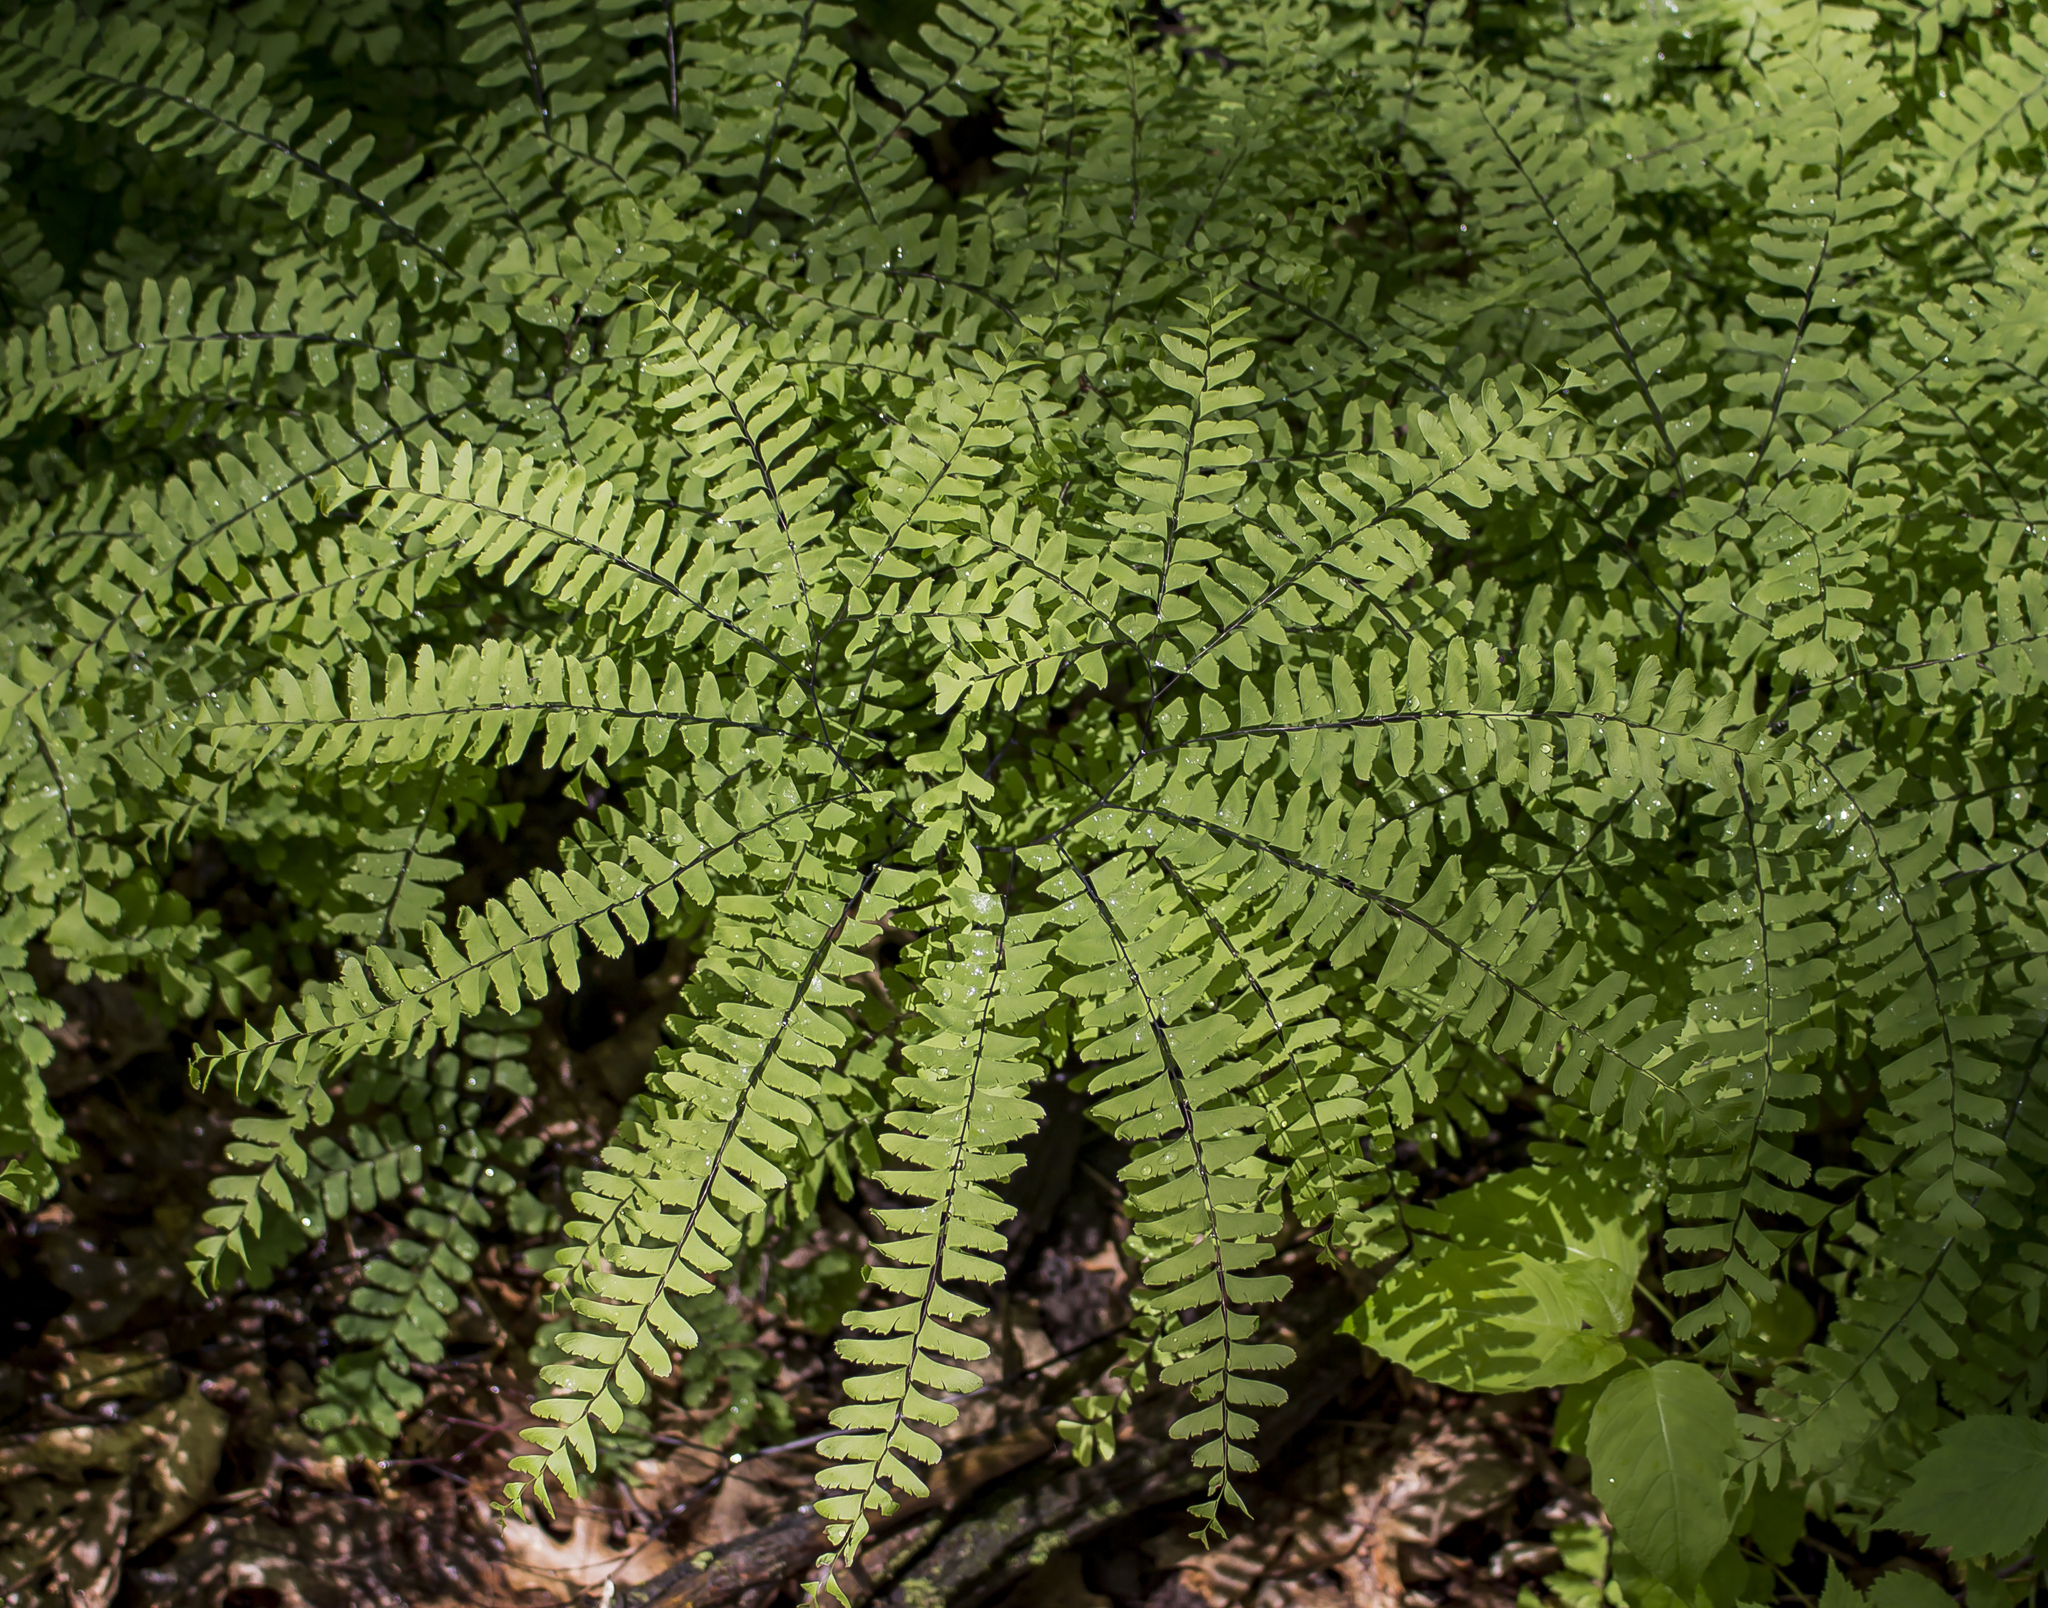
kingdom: Plantae
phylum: Tracheophyta
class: Polypodiopsida
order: Polypodiales
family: Pteridaceae
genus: Adiantum
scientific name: Adiantum pedatum
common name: Five-finger fern
